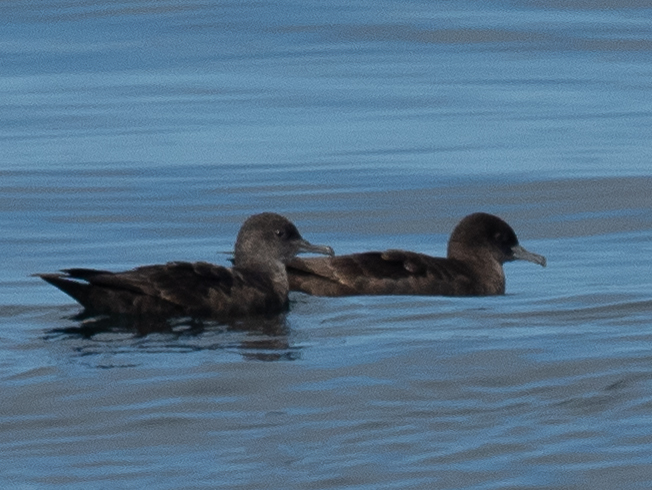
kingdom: Animalia
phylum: Chordata
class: Aves
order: Procellariiformes
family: Procellariidae
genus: Puffinus
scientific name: Puffinus griseus
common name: Sooty shearwater
